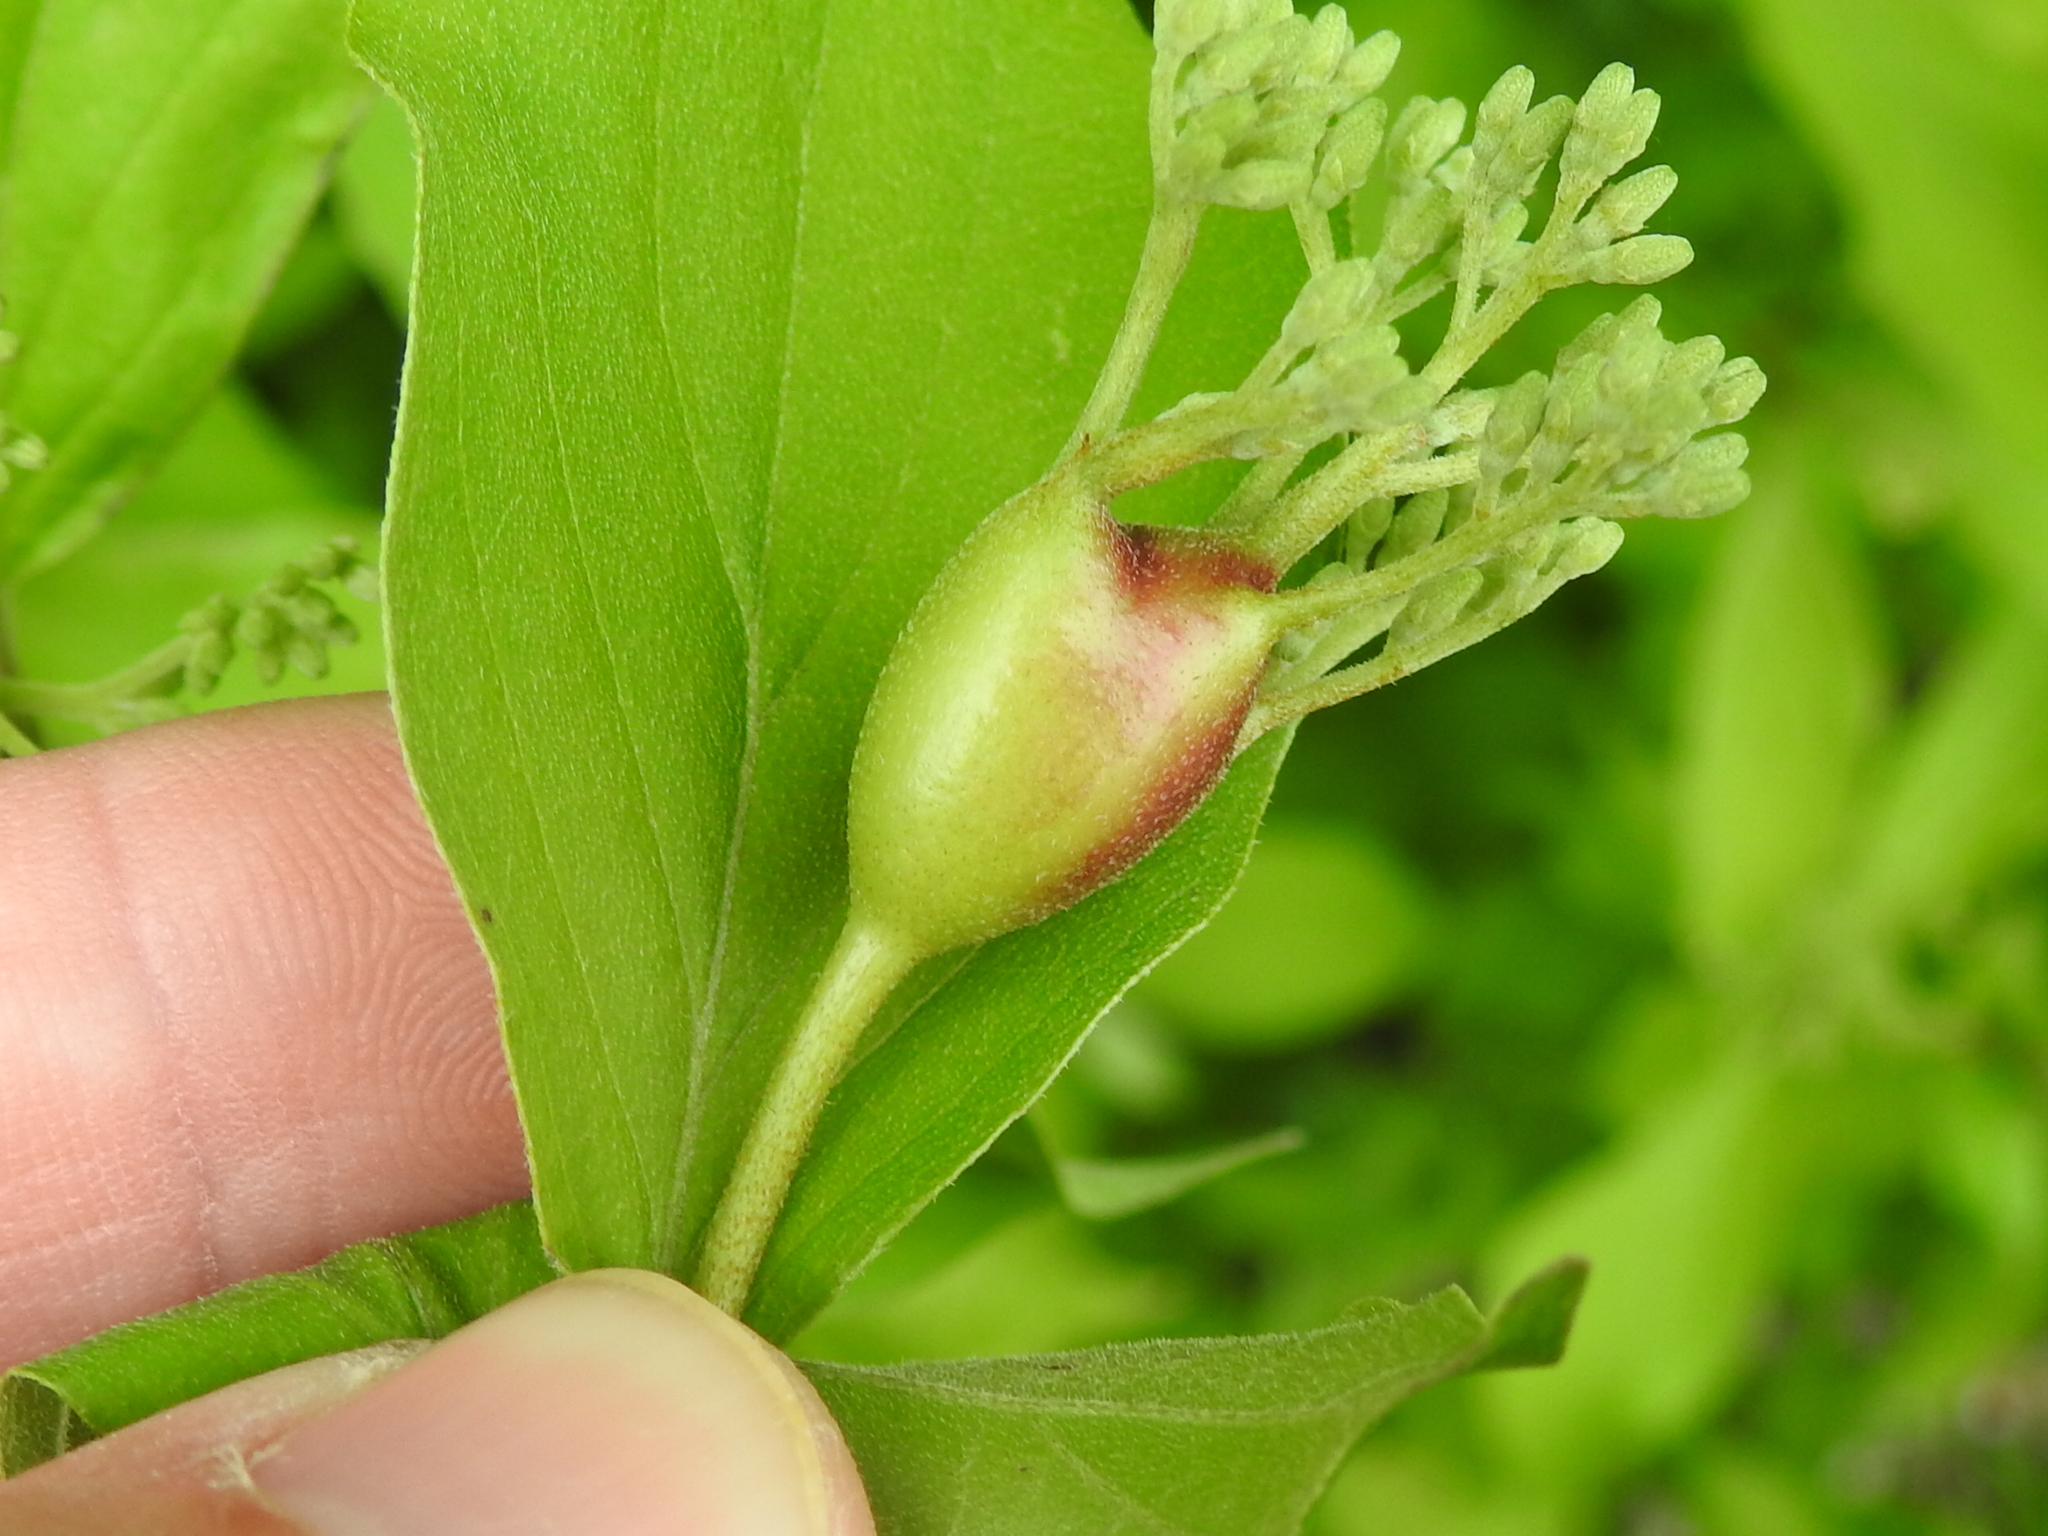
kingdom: Animalia
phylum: Arthropoda
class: Insecta
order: Diptera
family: Cecidomyiidae
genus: Resseliella
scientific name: Resseliella clavula
